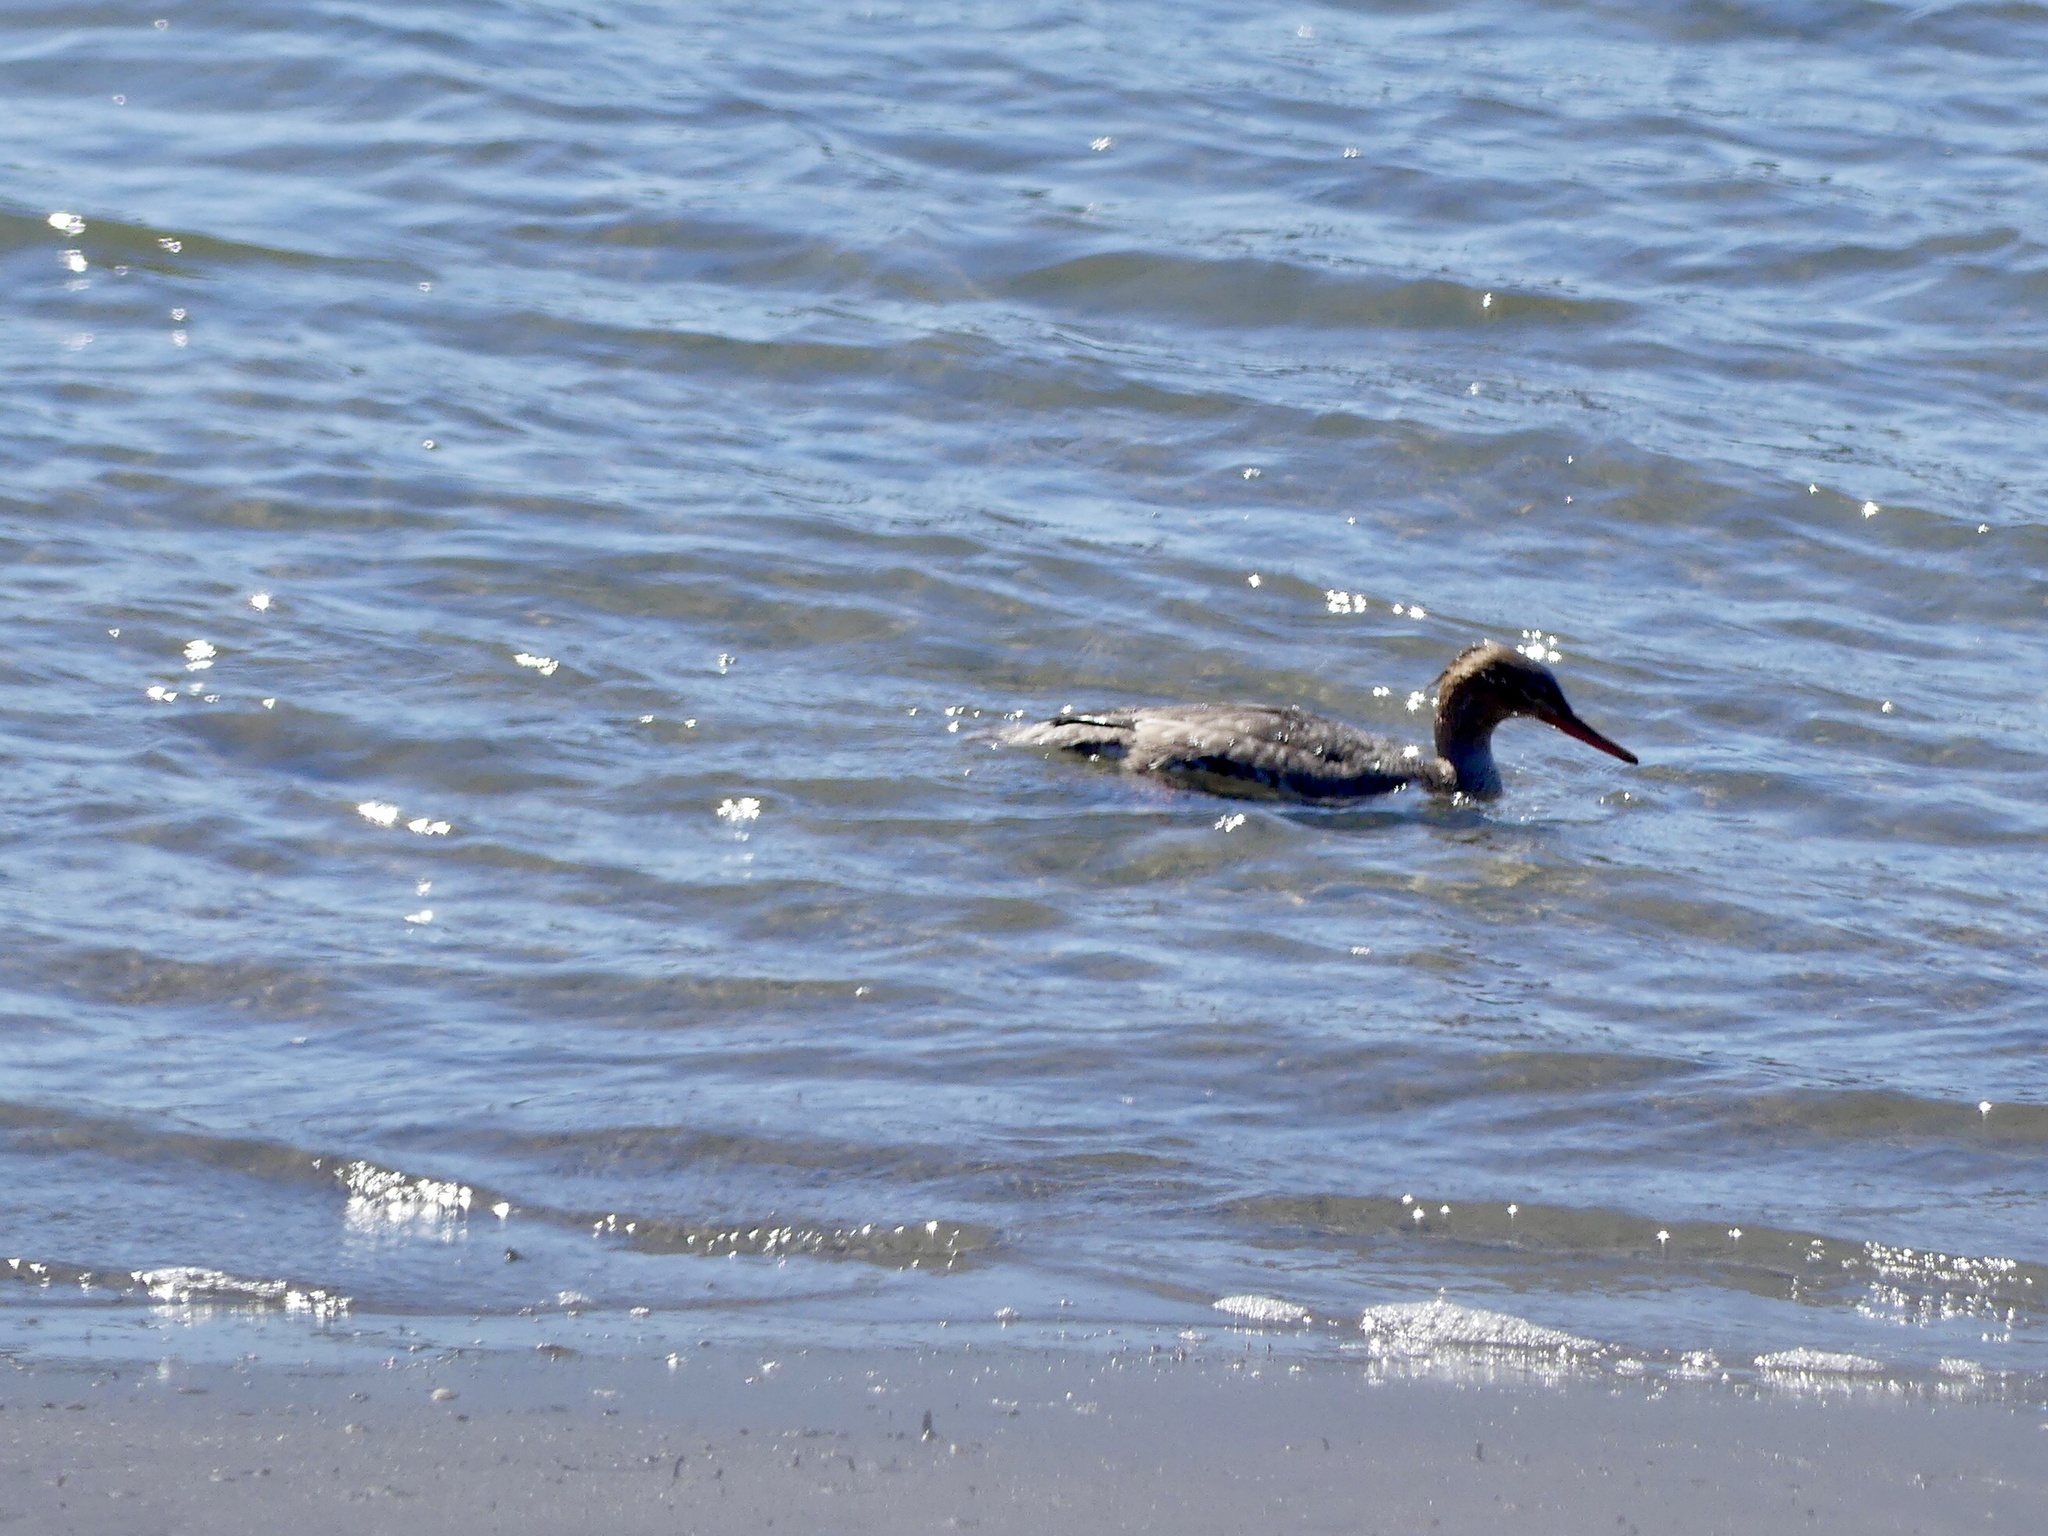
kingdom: Animalia
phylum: Chordata
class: Aves
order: Anseriformes
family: Anatidae
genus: Mergus
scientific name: Mergus serrator
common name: Red-breasted merganser
